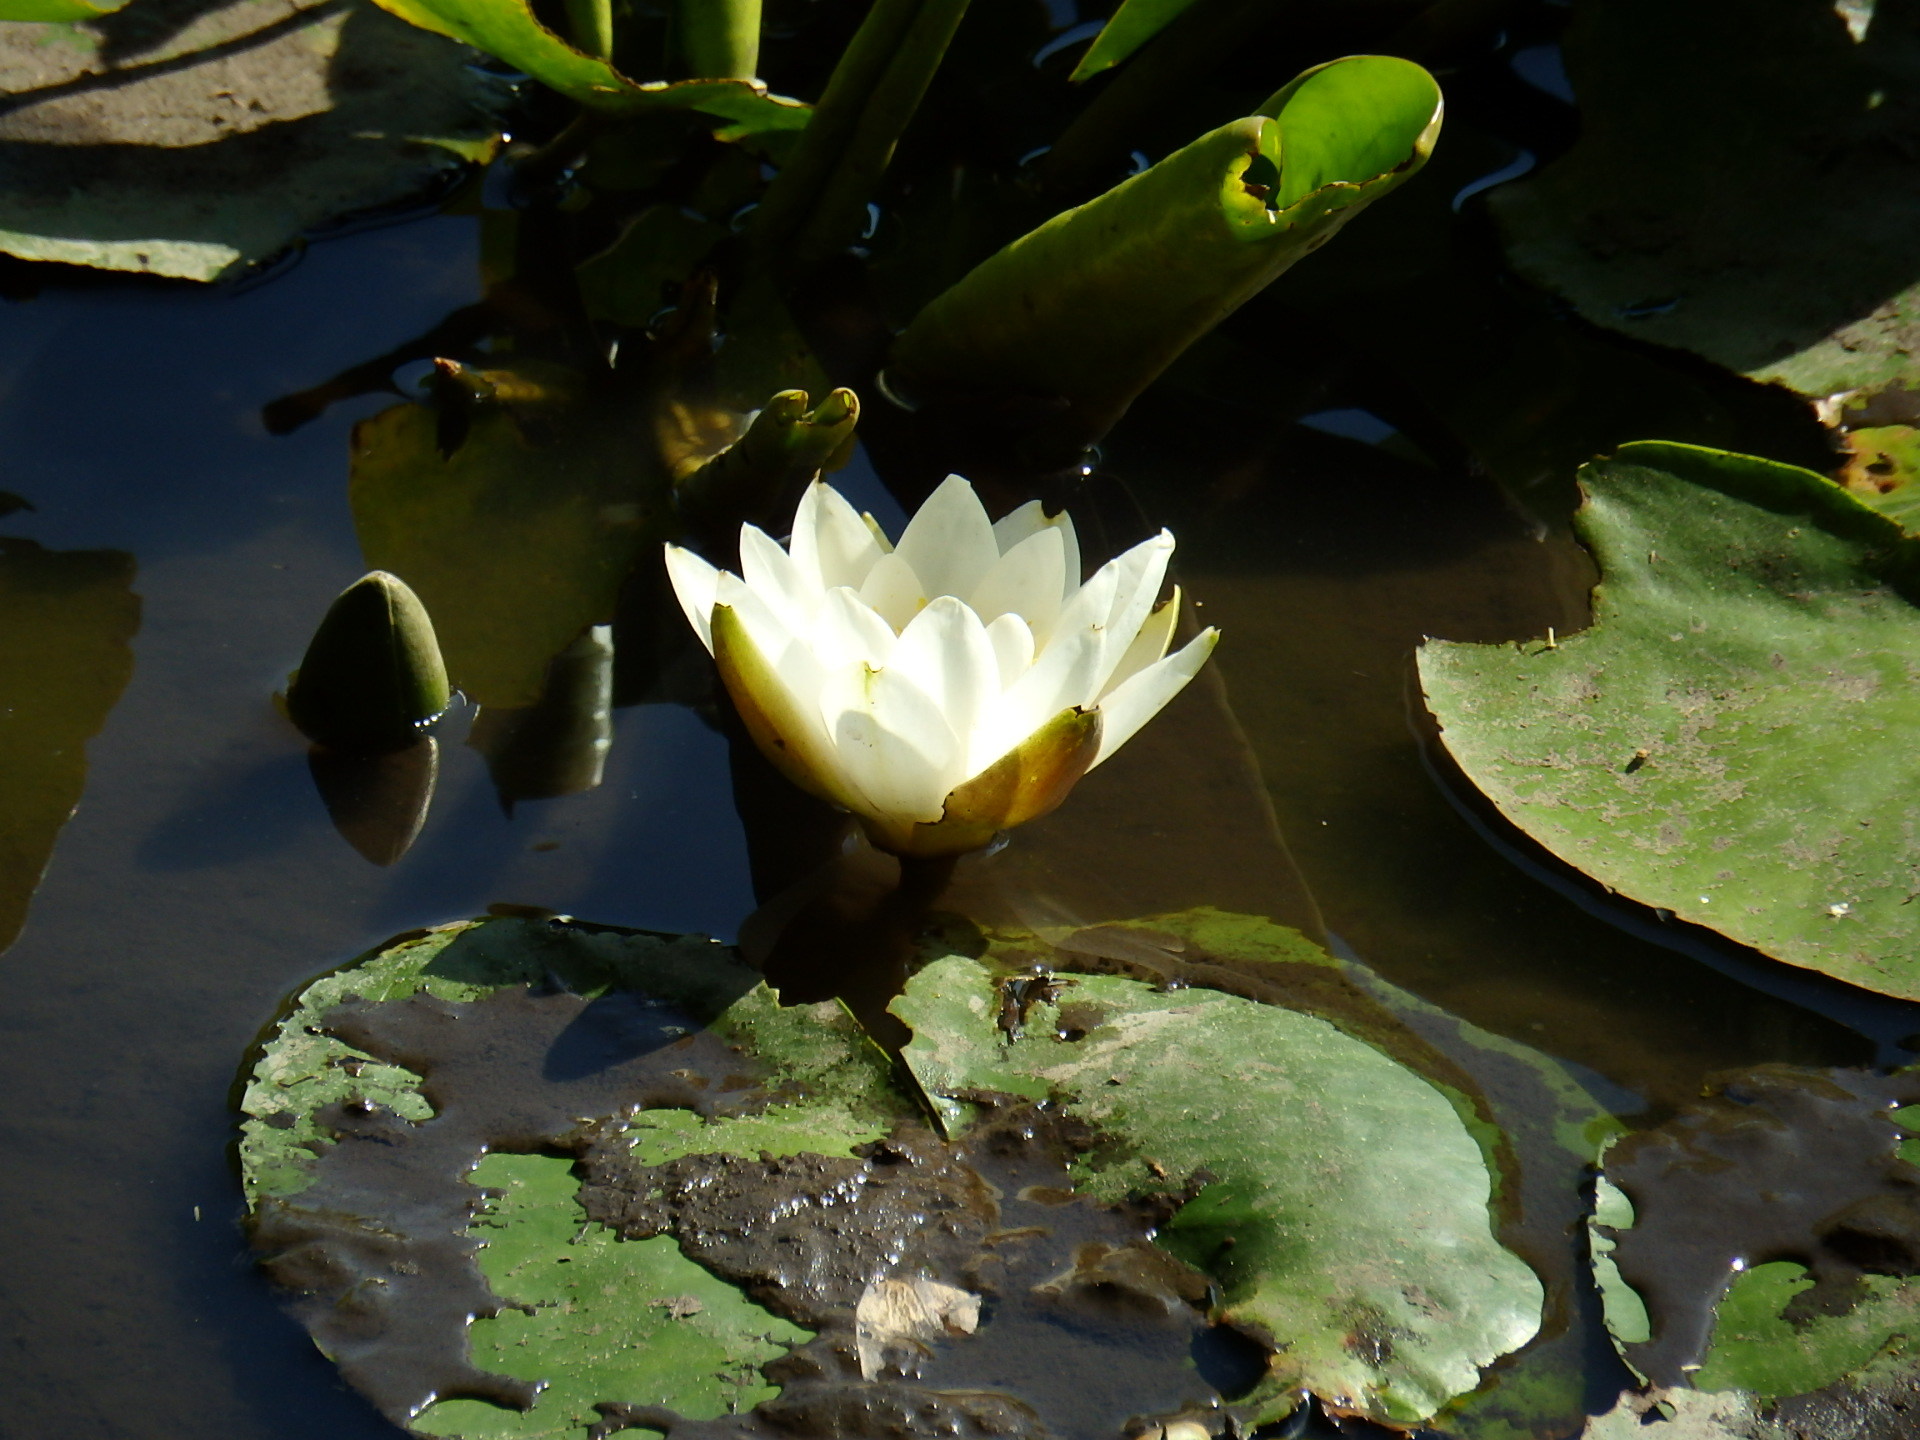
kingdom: Plantae
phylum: Tracheophyta
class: Magnoliopsida
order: Nymphaeales
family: Nymphaeaceae
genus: Nymphaea
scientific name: Nymphaea alba
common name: White water-lily
